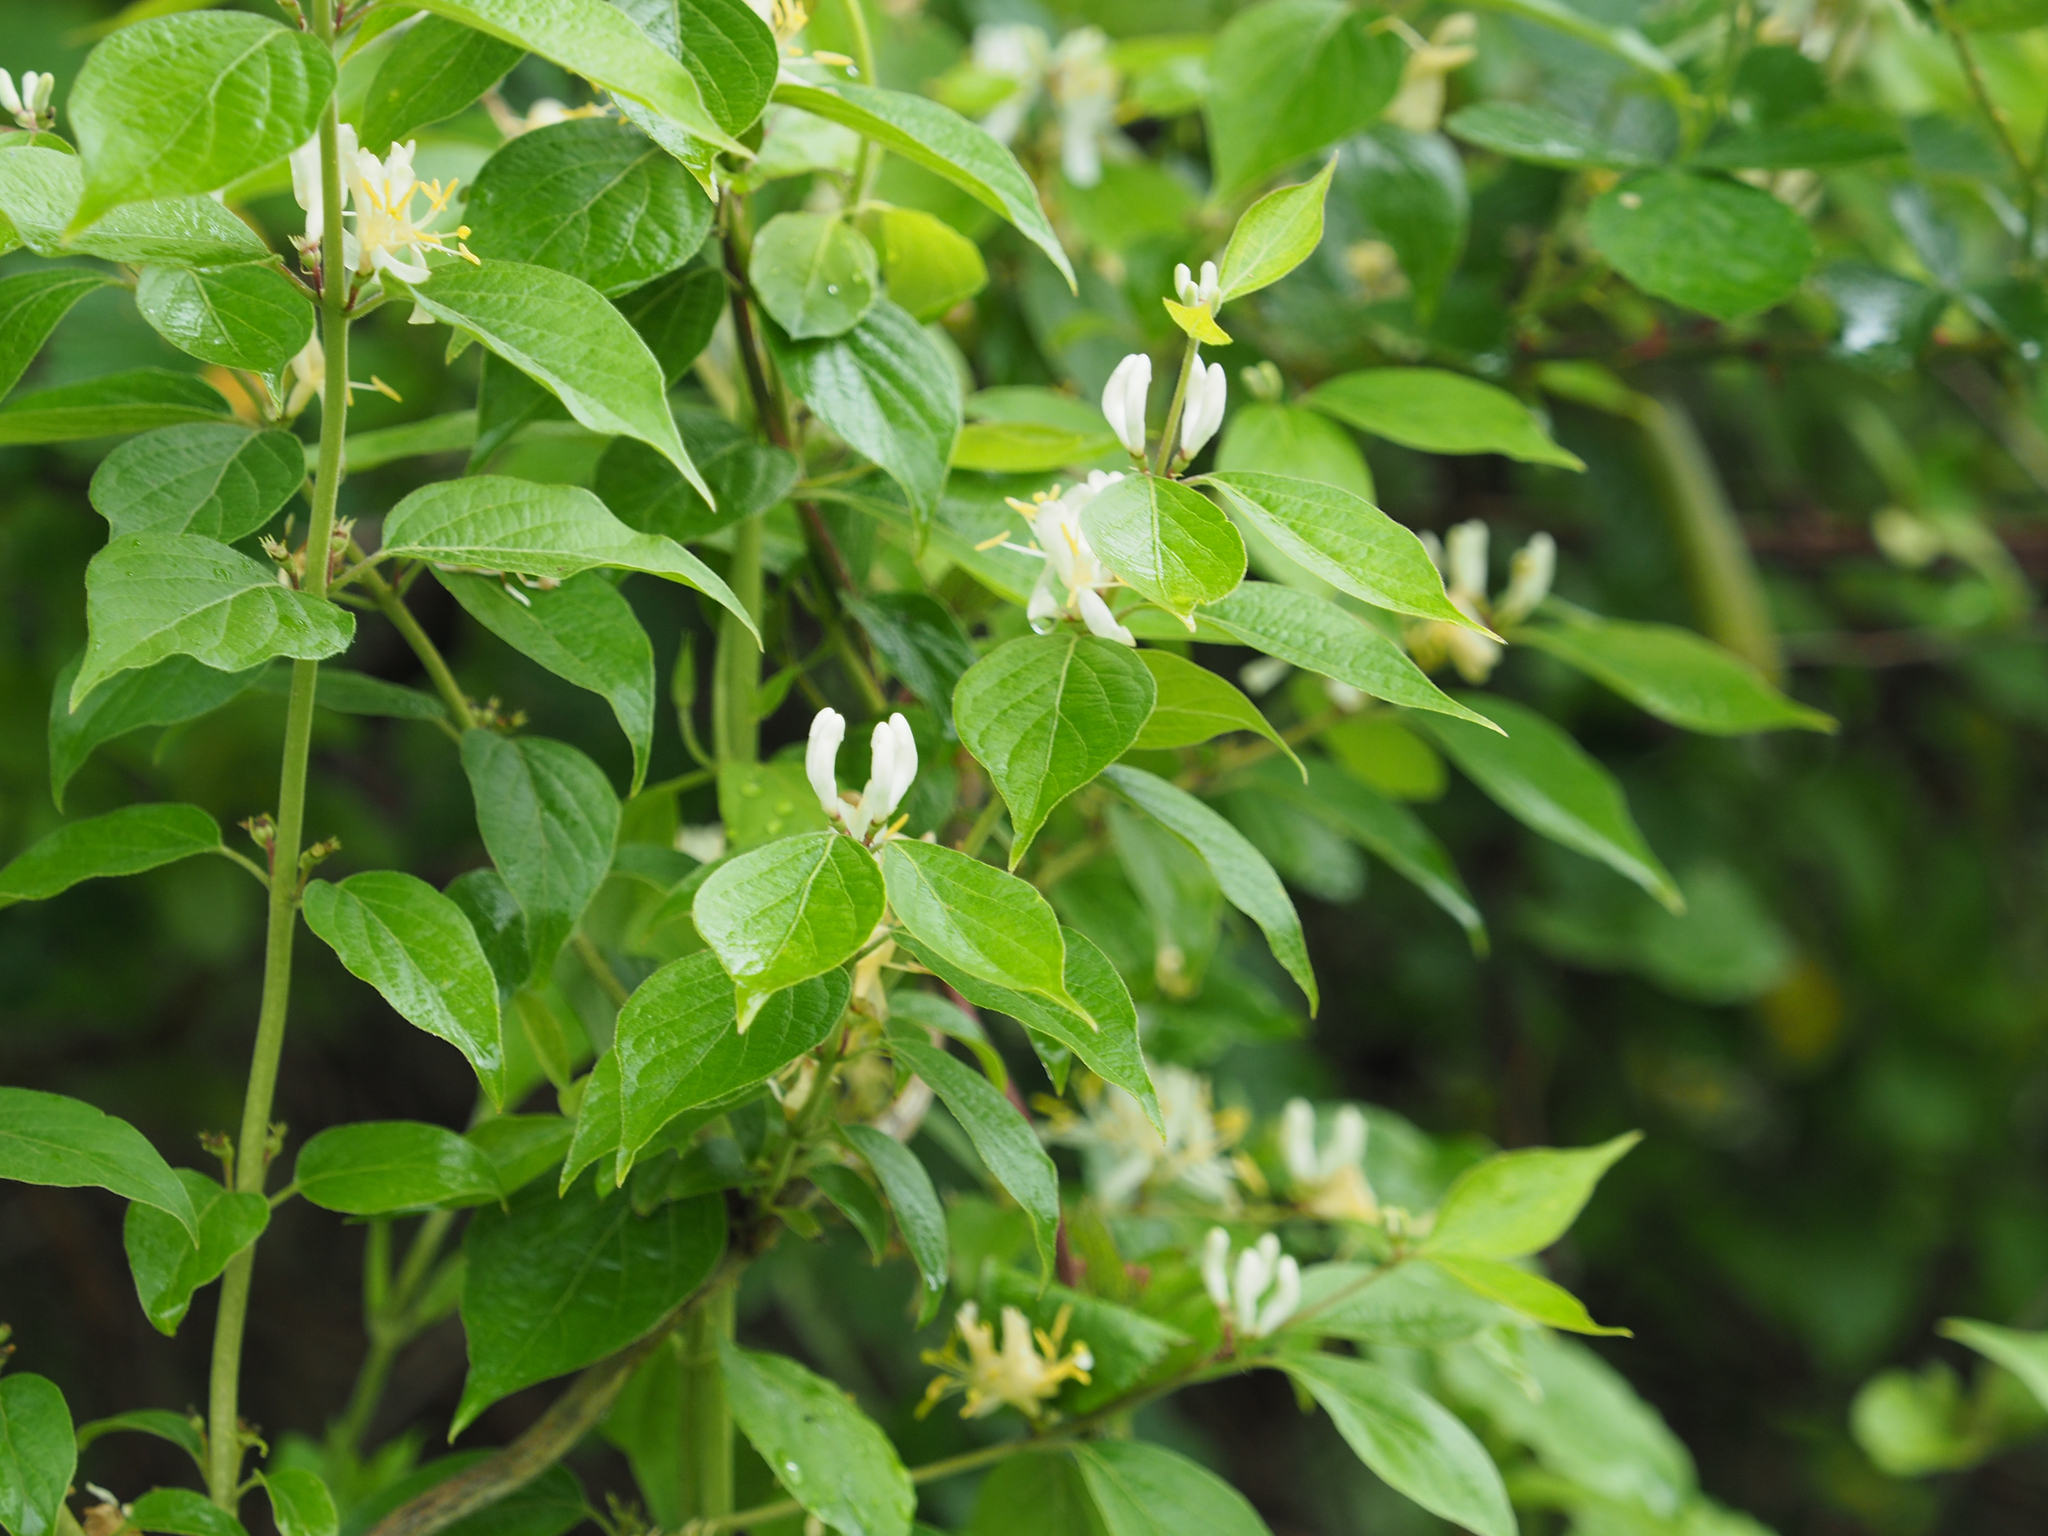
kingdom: Plantae
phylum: Tracheophyta
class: Magnoliopsida
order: Dipsacales
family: Caprifoliaceae
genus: Lonicera
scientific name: Lonicera maackii
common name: Amur honeysuckle
